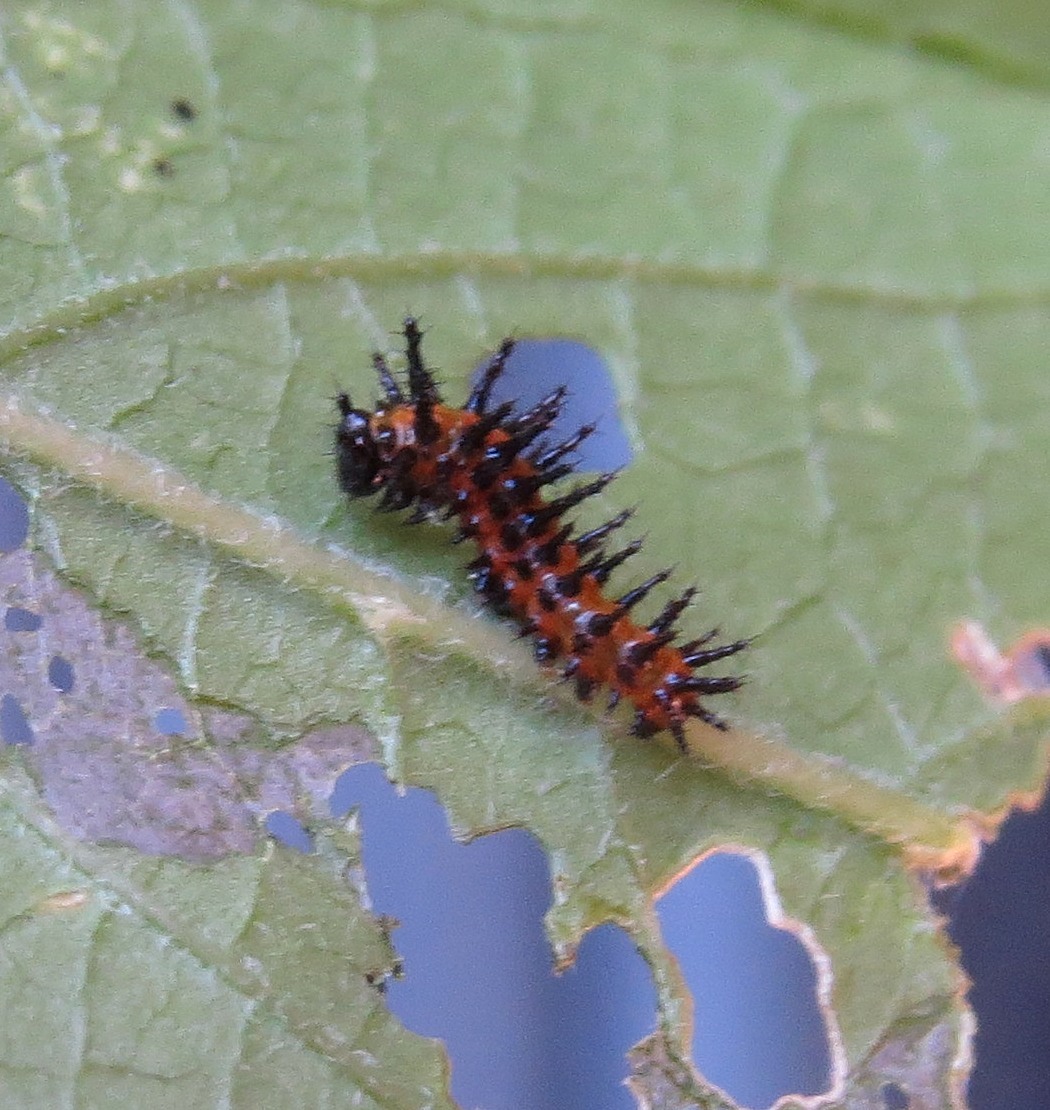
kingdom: Animalia
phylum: Arthropoda
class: Insecta
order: Lepidoptera
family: Nymphalidae
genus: Dione
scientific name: Dione vanillae
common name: Gulf fritillary
